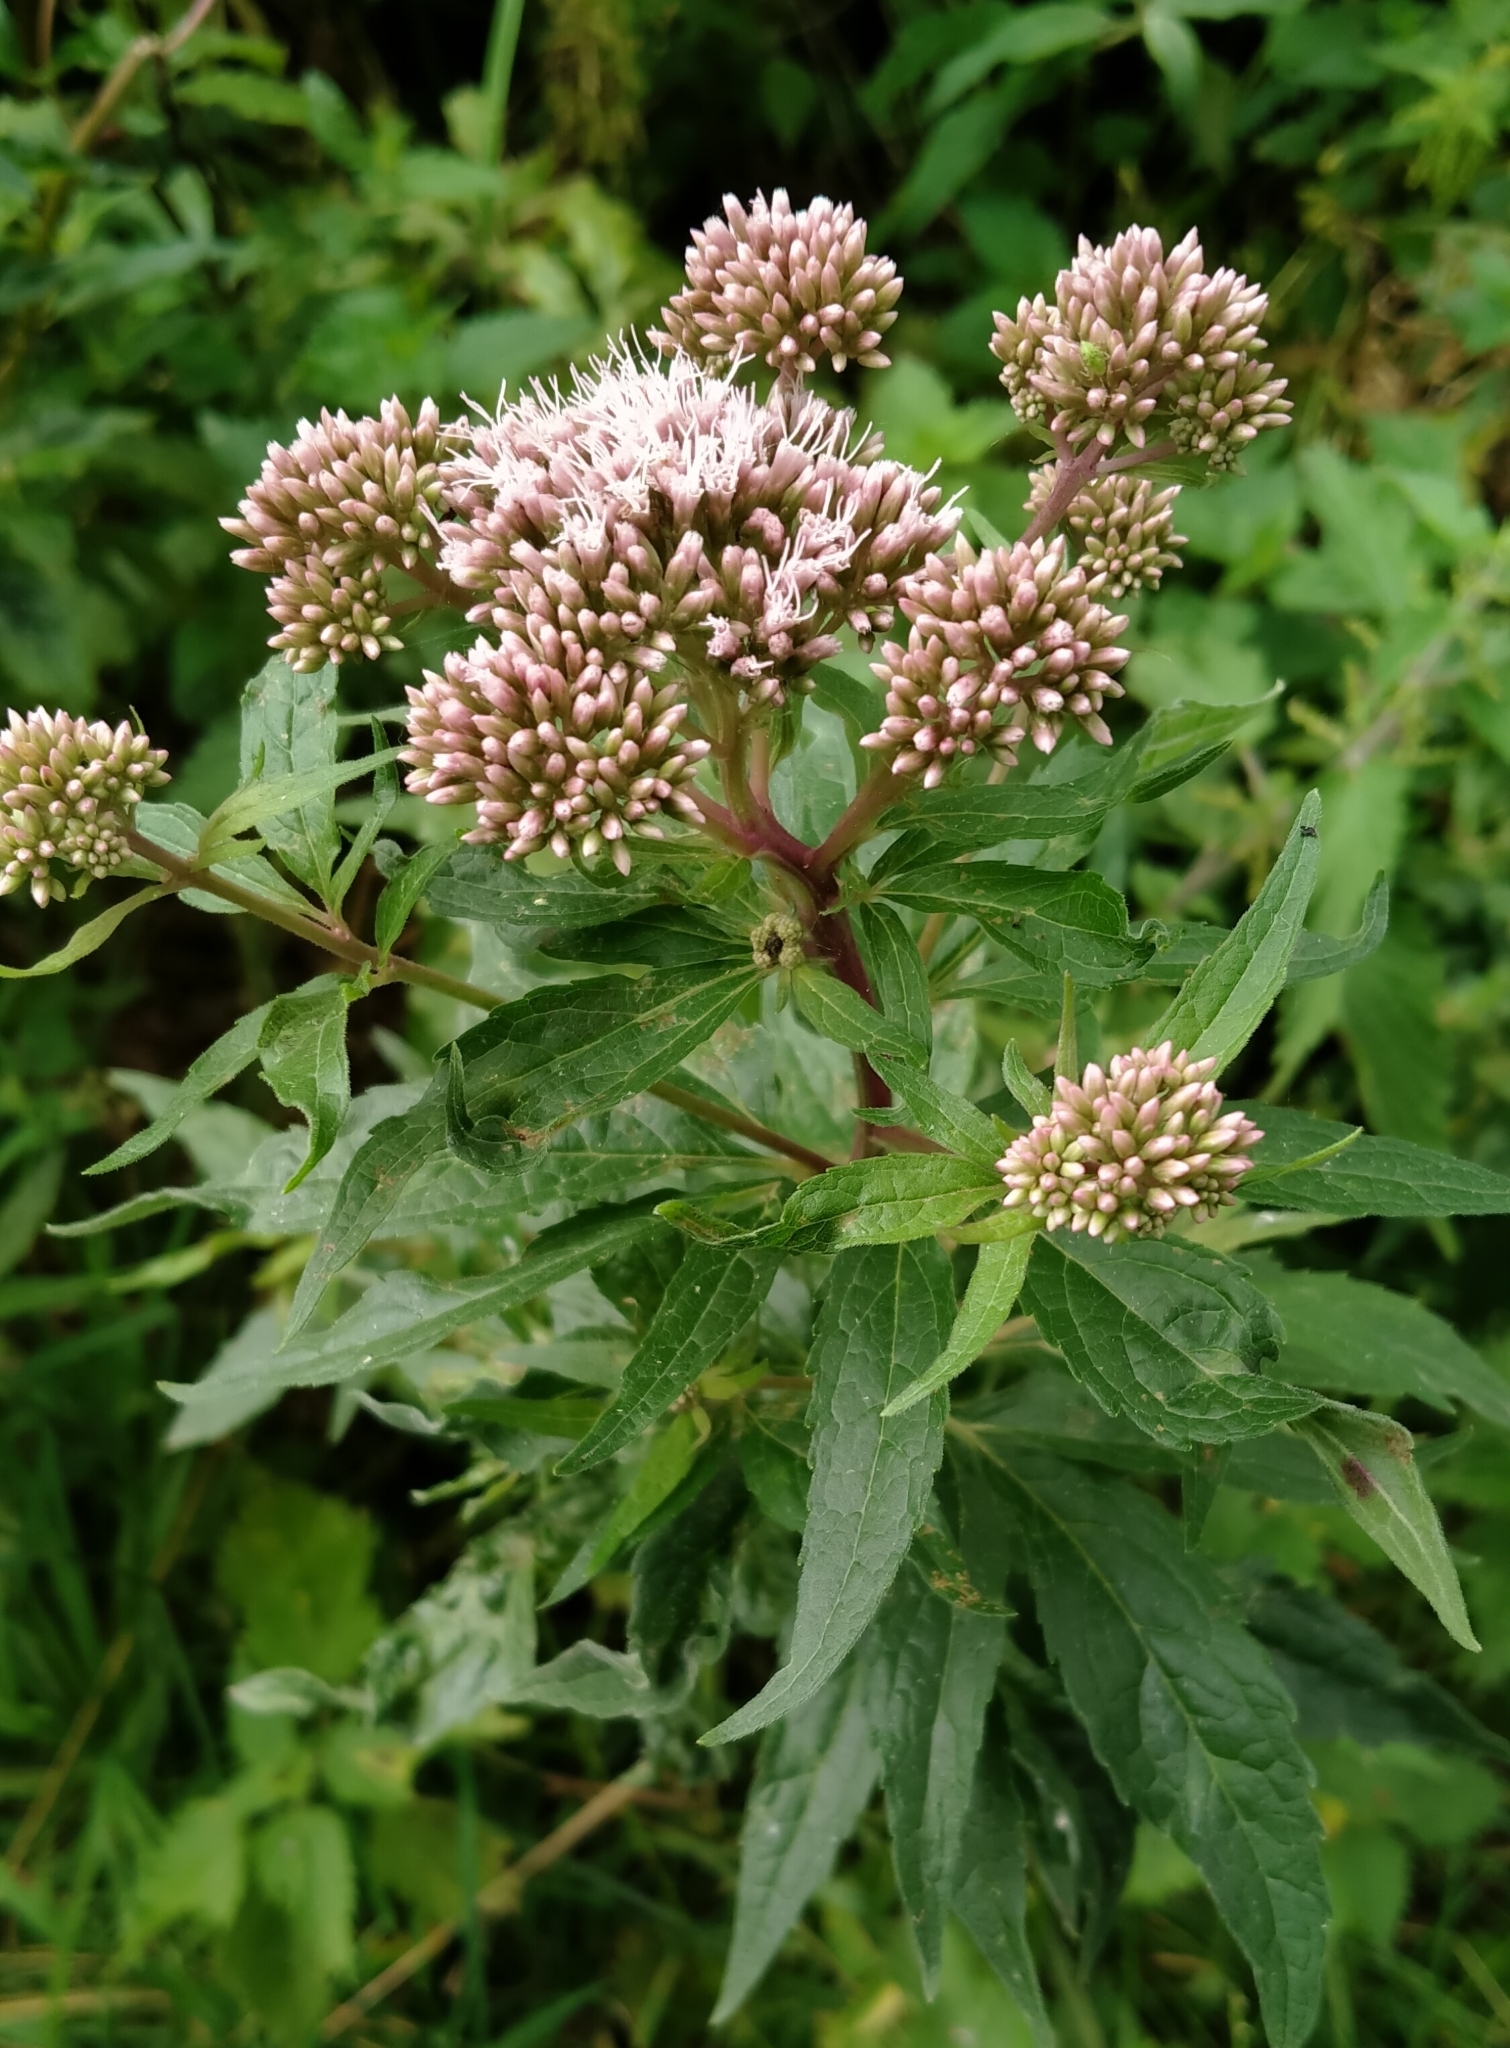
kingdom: Plantae
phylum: Tracheophyta
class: Magnoliopsida
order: Asterales
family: Asteraceae
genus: Eupatorium
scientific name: Eupatorium cannabinum
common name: Hemp-agrimony
